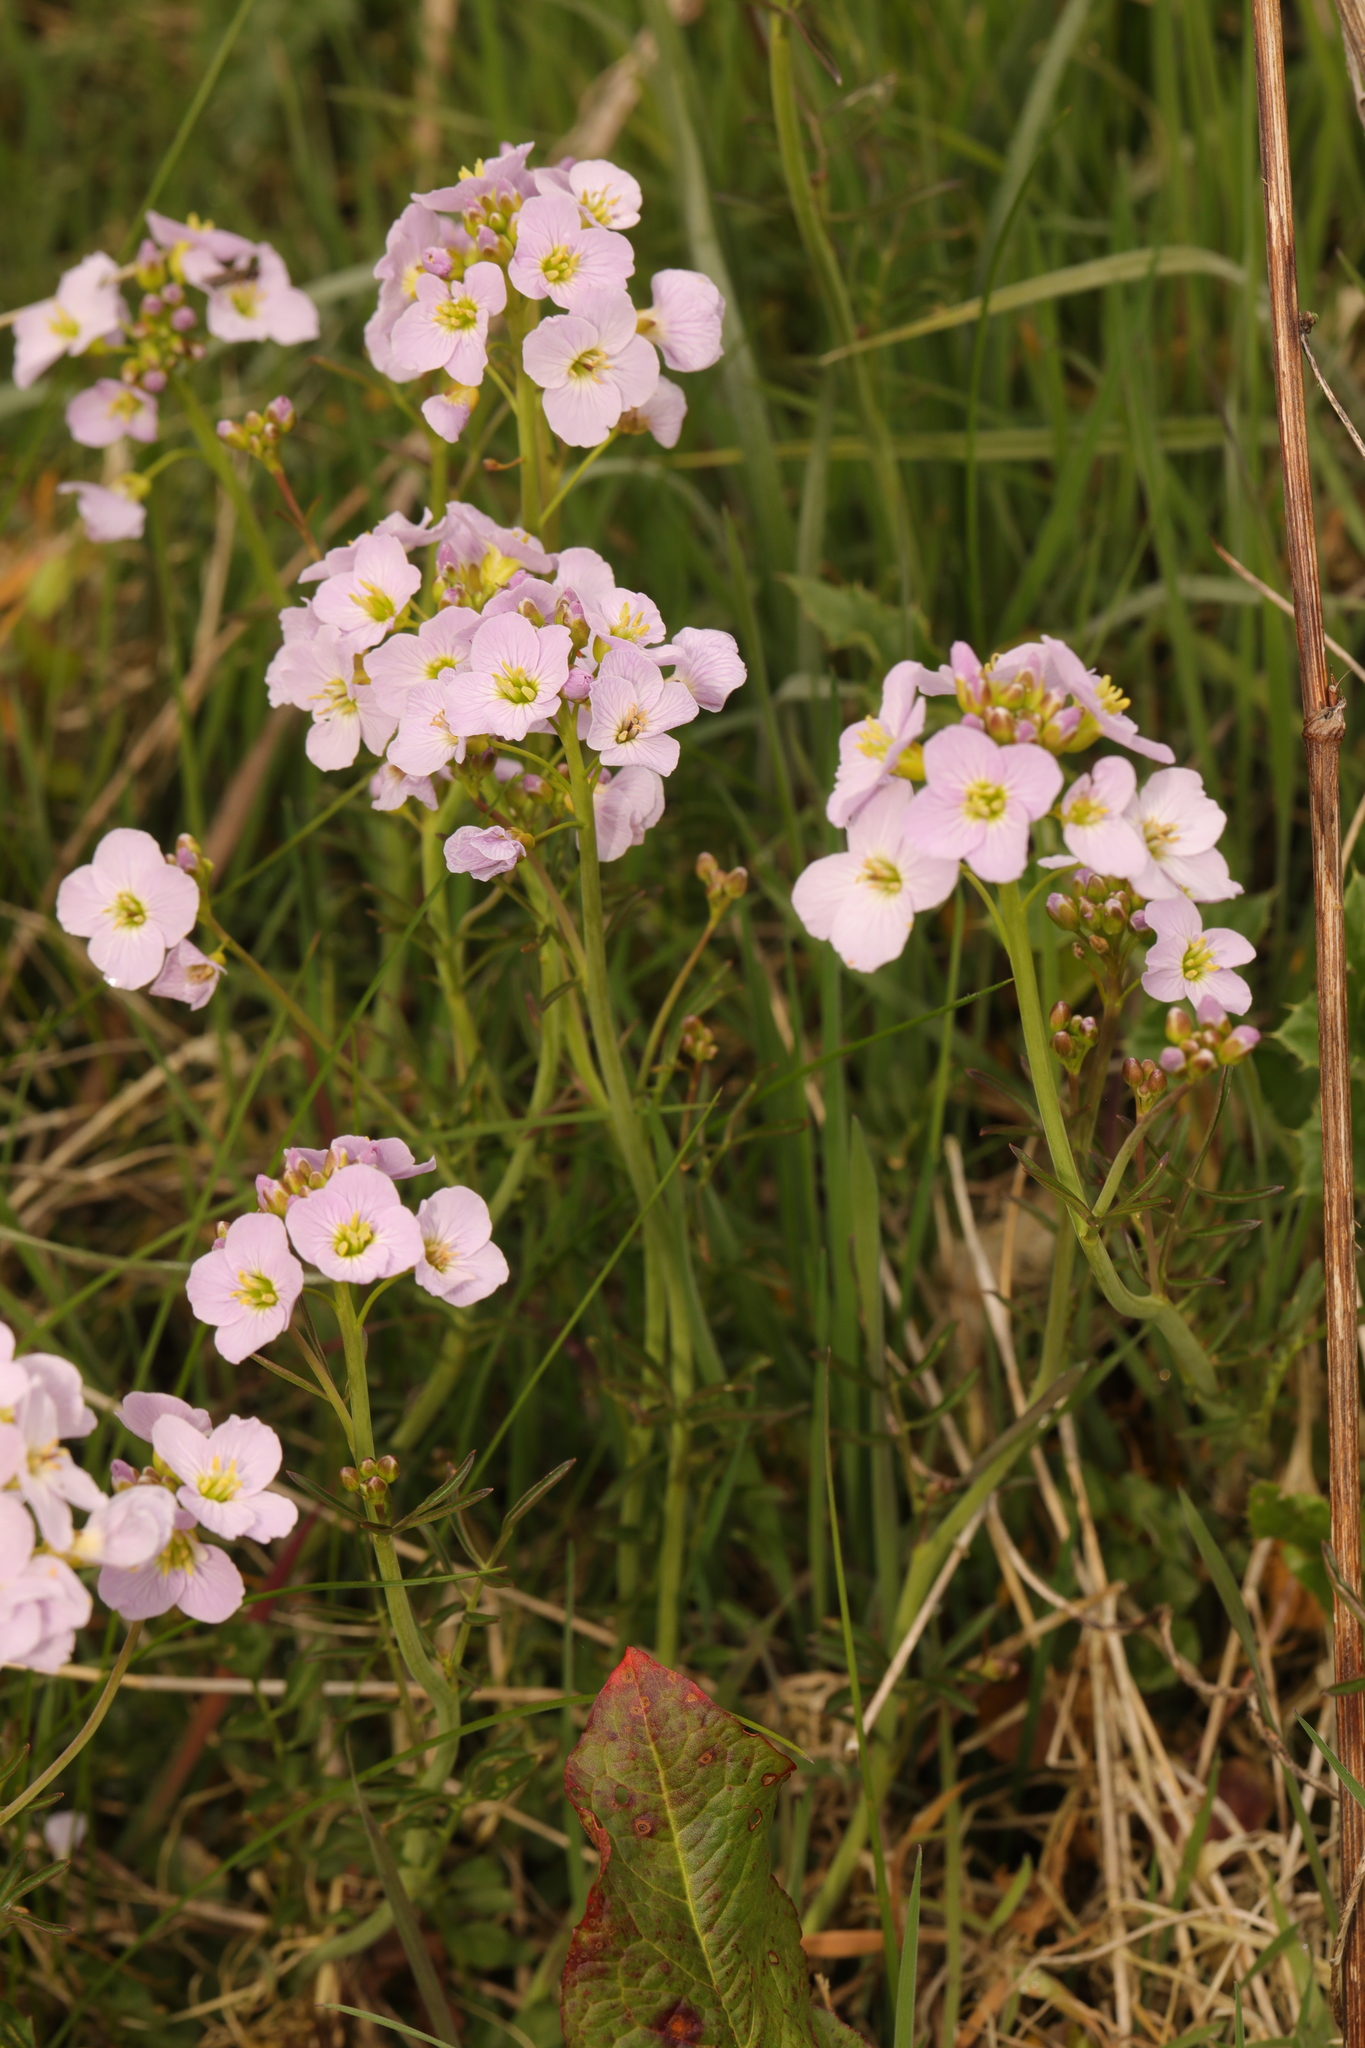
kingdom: Plantae
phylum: Tracheophyta
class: Magnoliopsida
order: Brassicales
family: Brassicaceae
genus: Cardamine
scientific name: Cardamine pratensis
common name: Cuckoo flower
